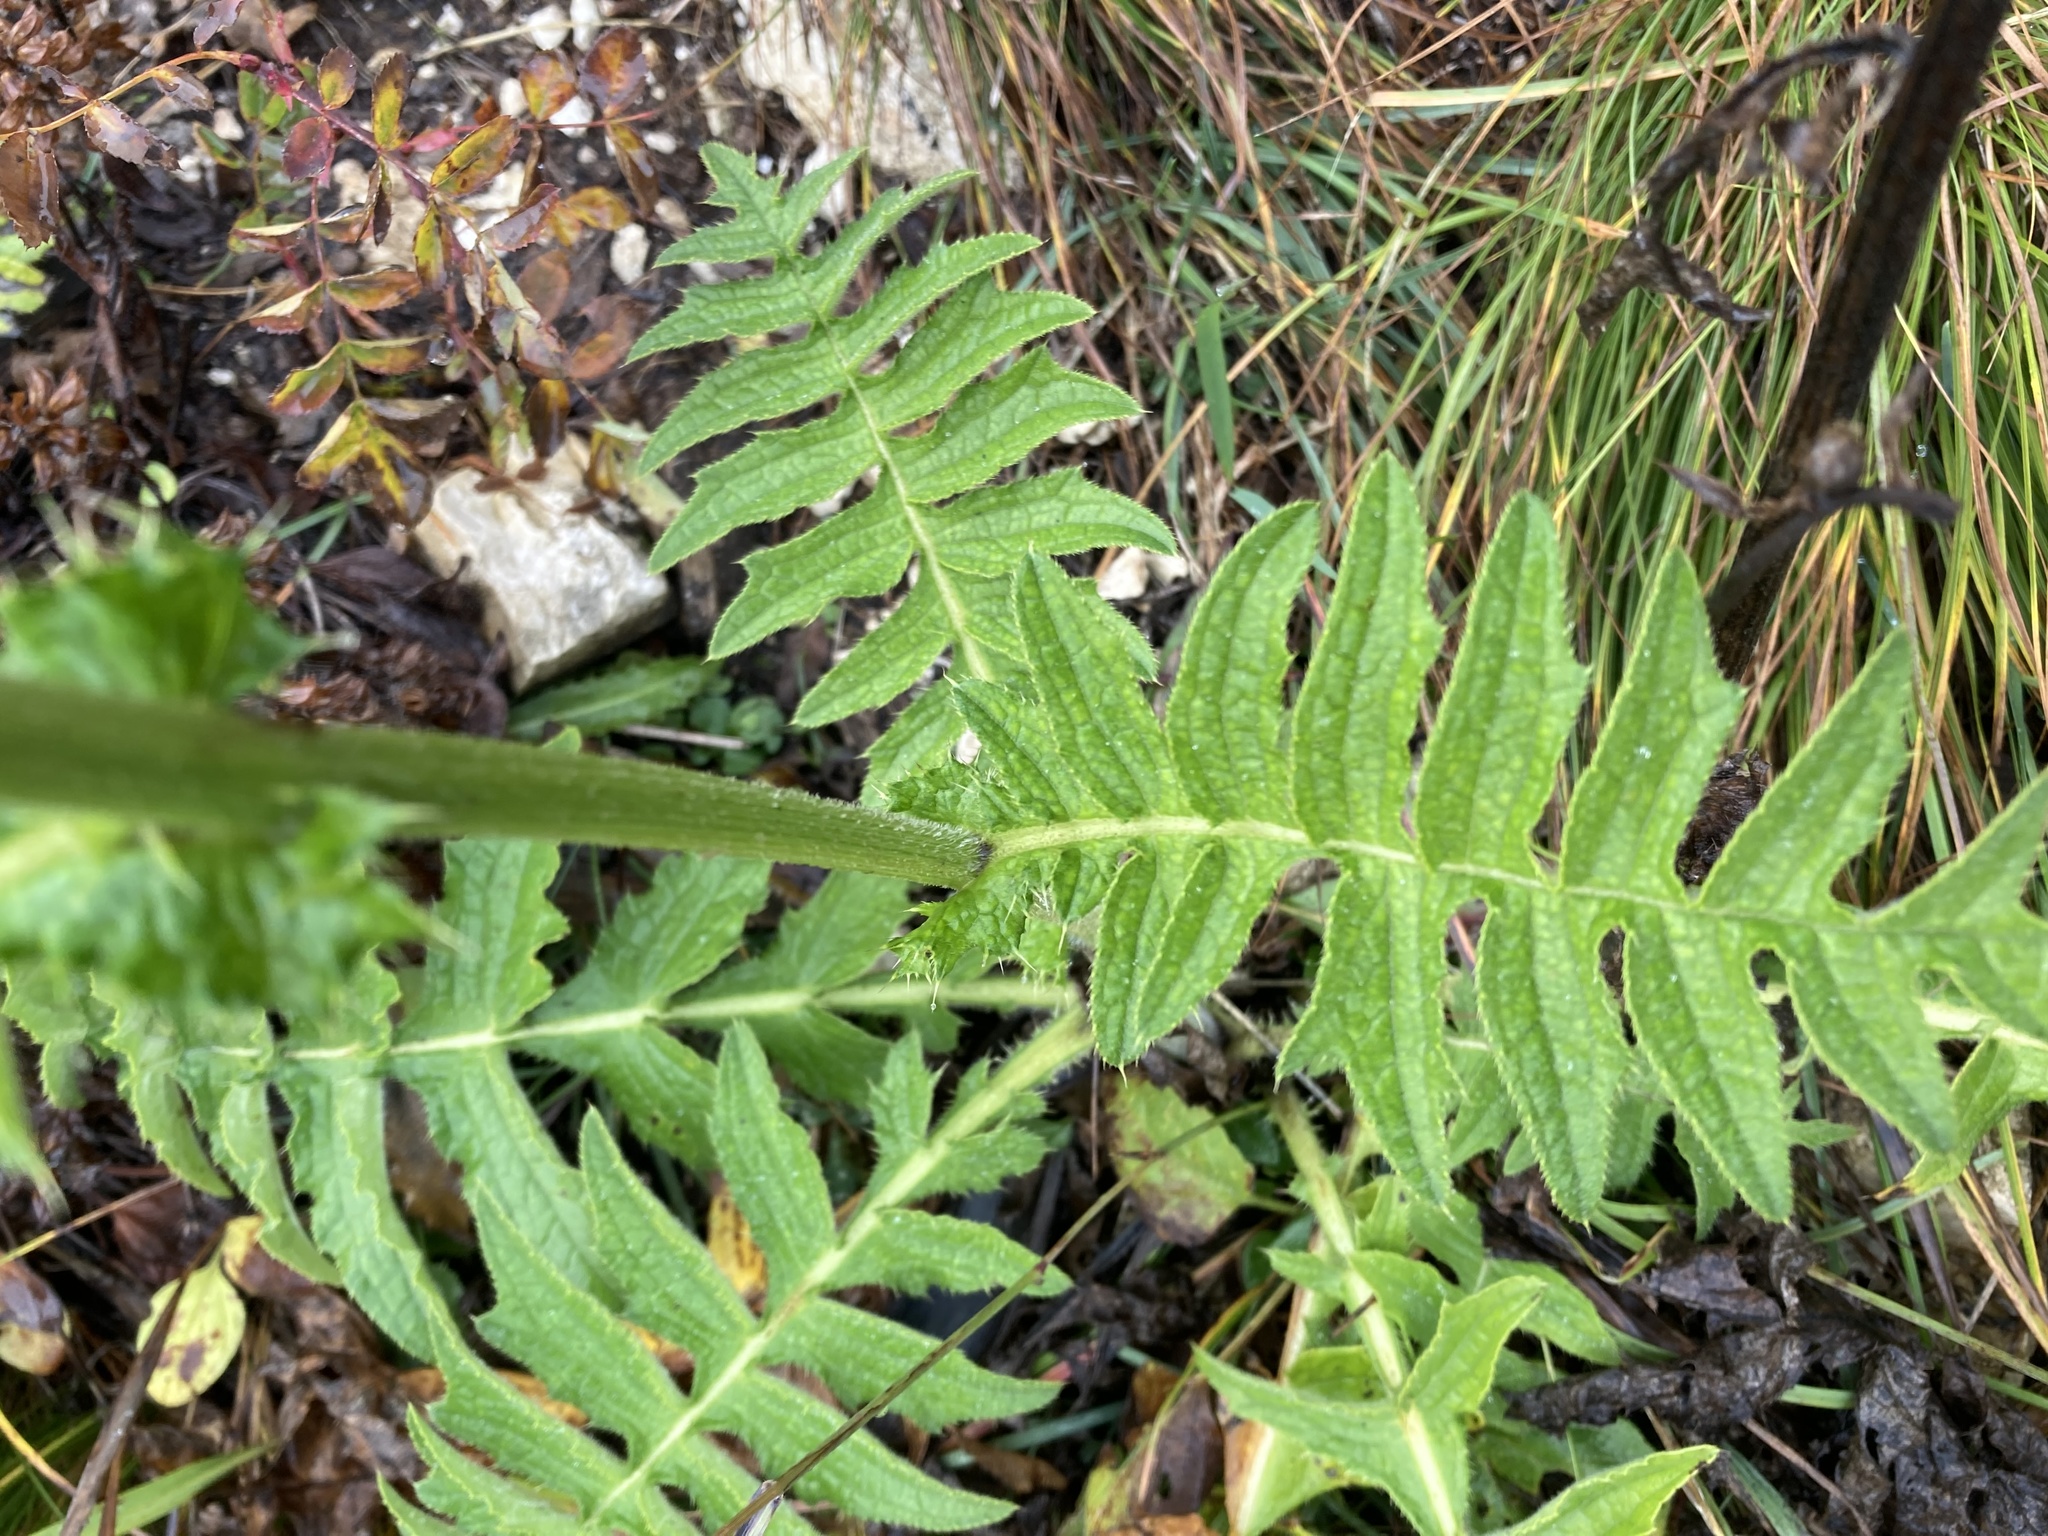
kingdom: Plantae
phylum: Tracheophyta
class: Magnoliopsida
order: Asterales
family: Asteraceae
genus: Cirsium
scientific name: Cirsium erisithales
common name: Yellow thistle
